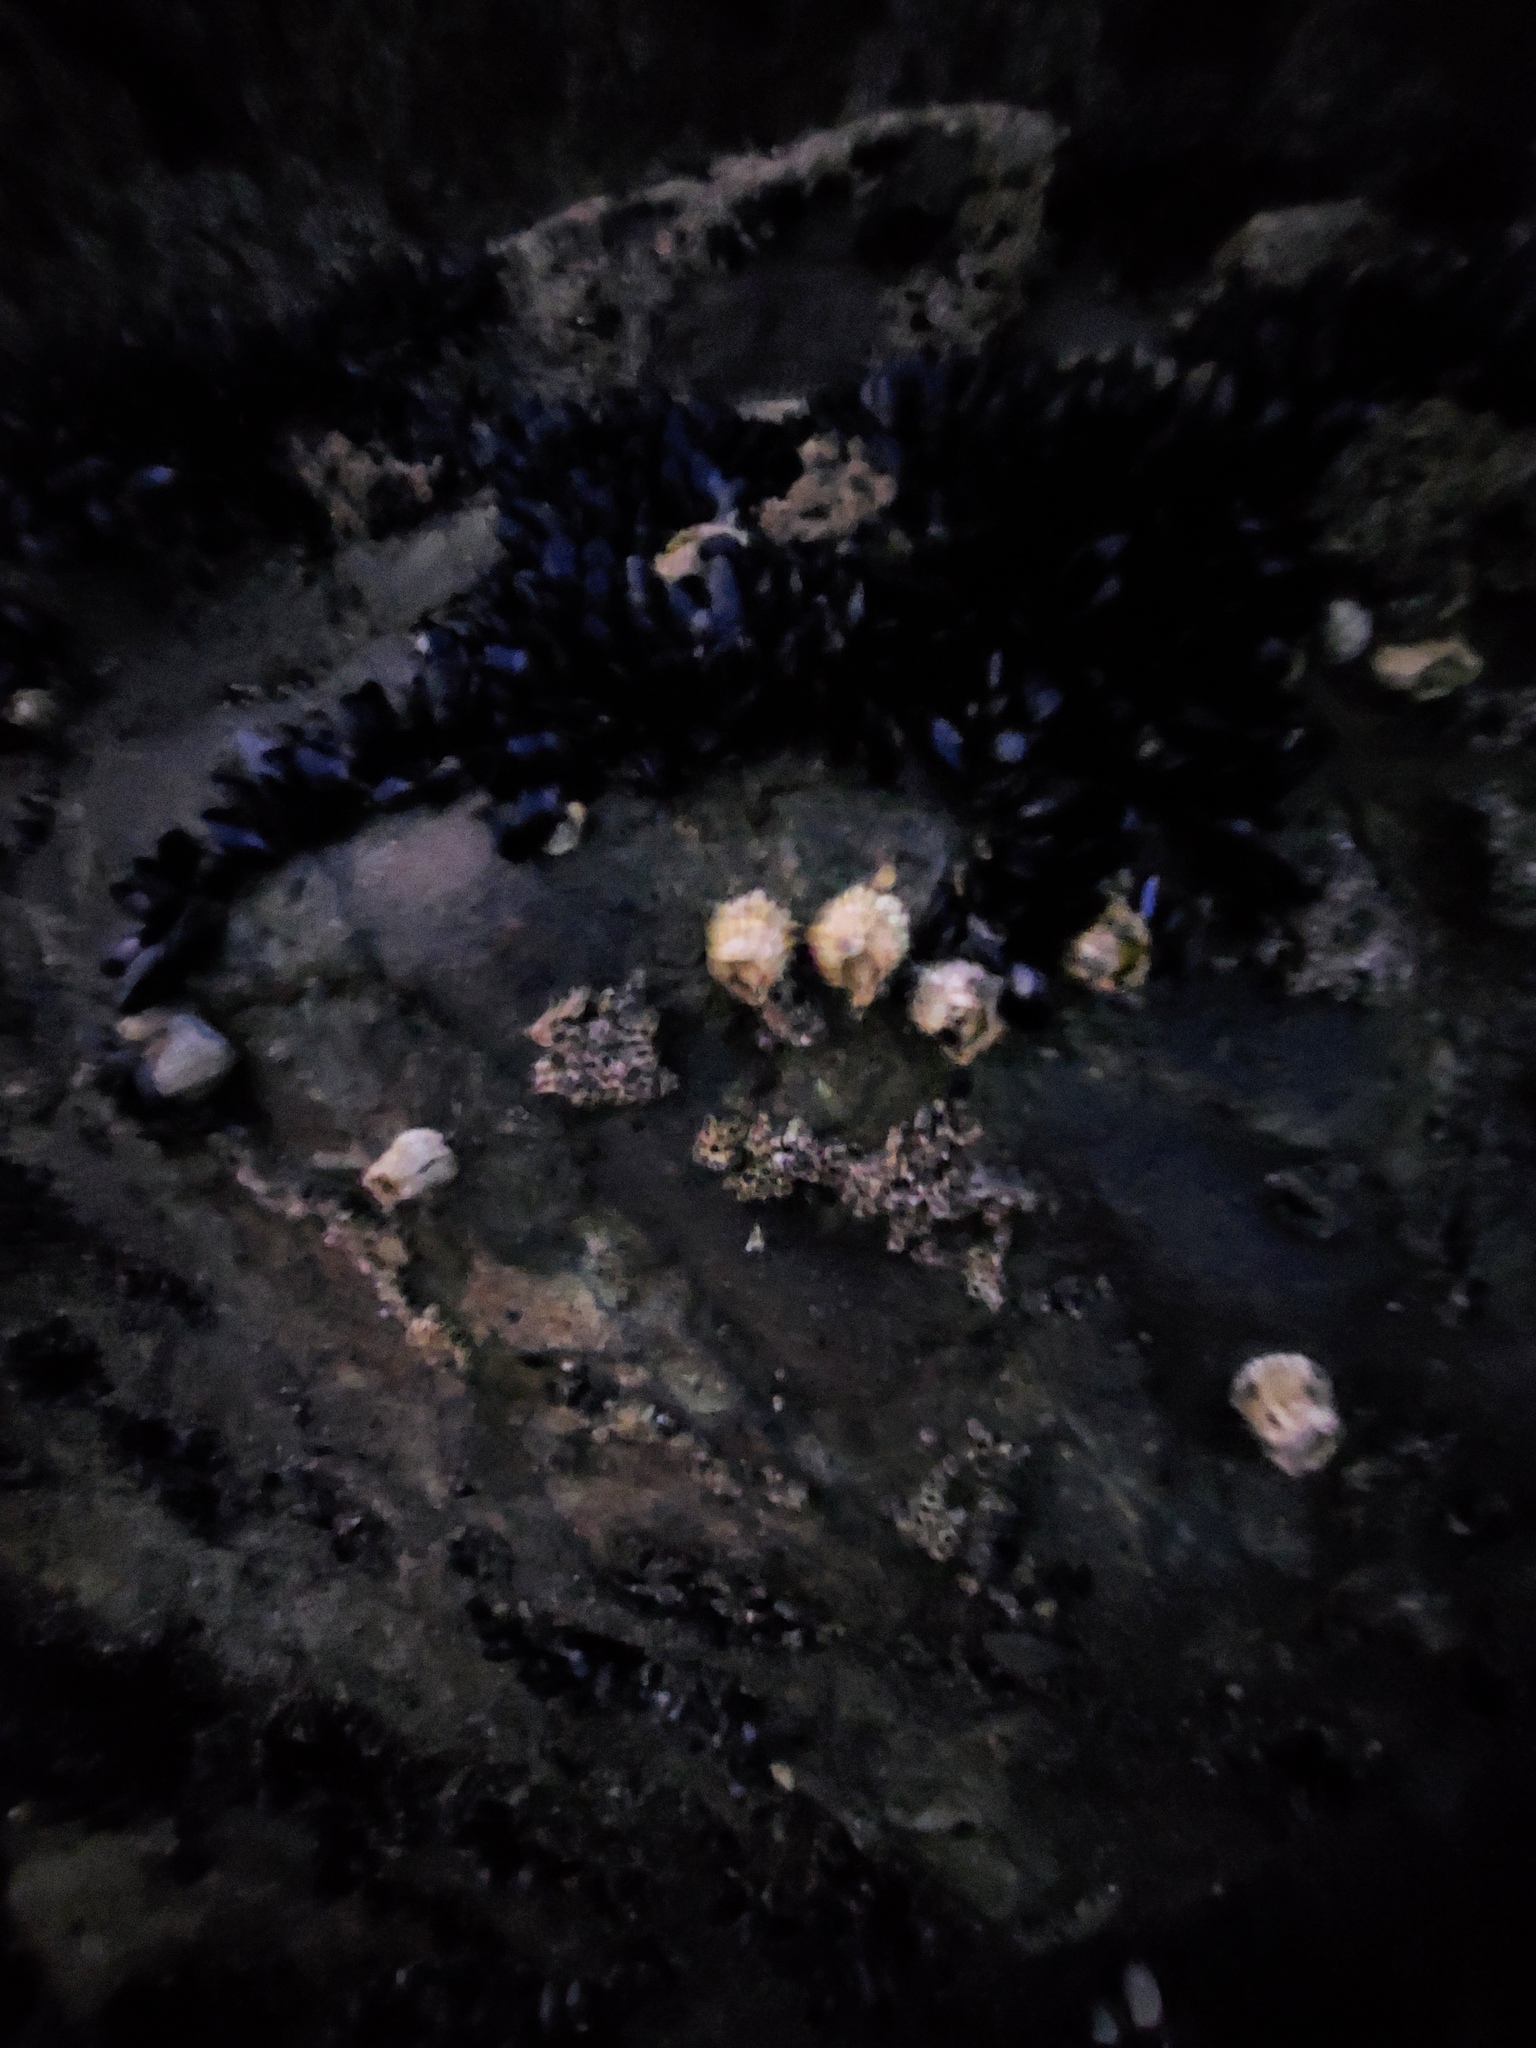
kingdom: Animalia
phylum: Arthropoda
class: Maxillopoda
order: Sessilia
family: Tetraclitidae
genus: Epopella
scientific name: Epopella plicata
